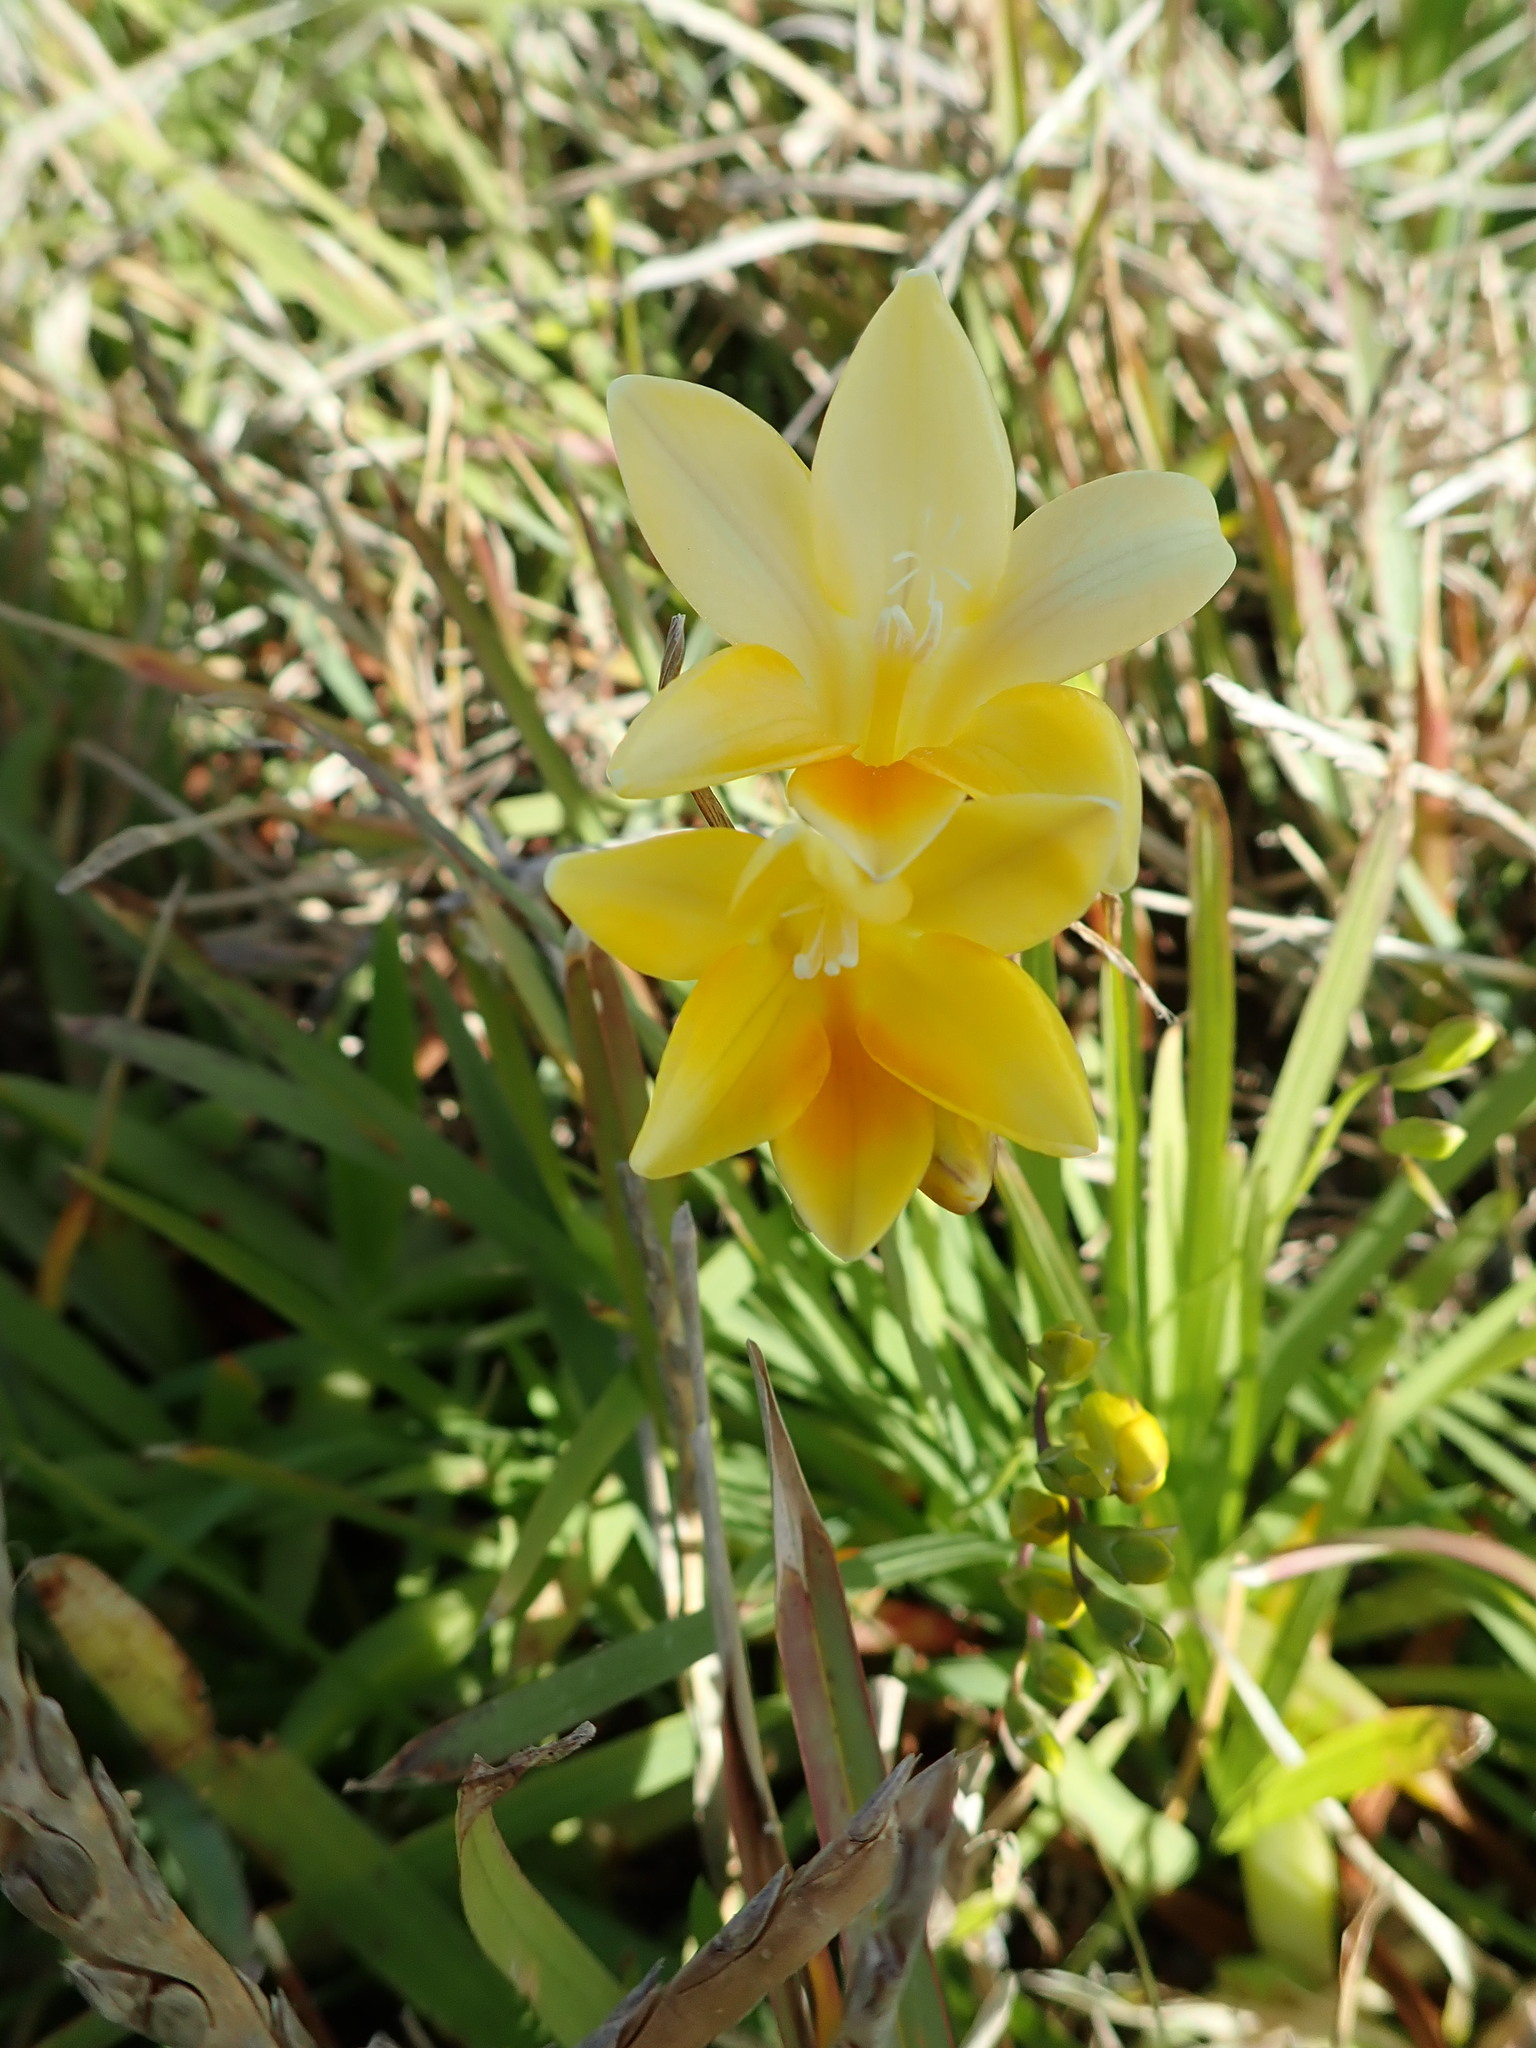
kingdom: Plantae
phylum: Tracheophyta
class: Liliopsida
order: Asparagales
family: Iridaceae
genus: Freesia
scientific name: Freesia leichtlinii
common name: Freesia
